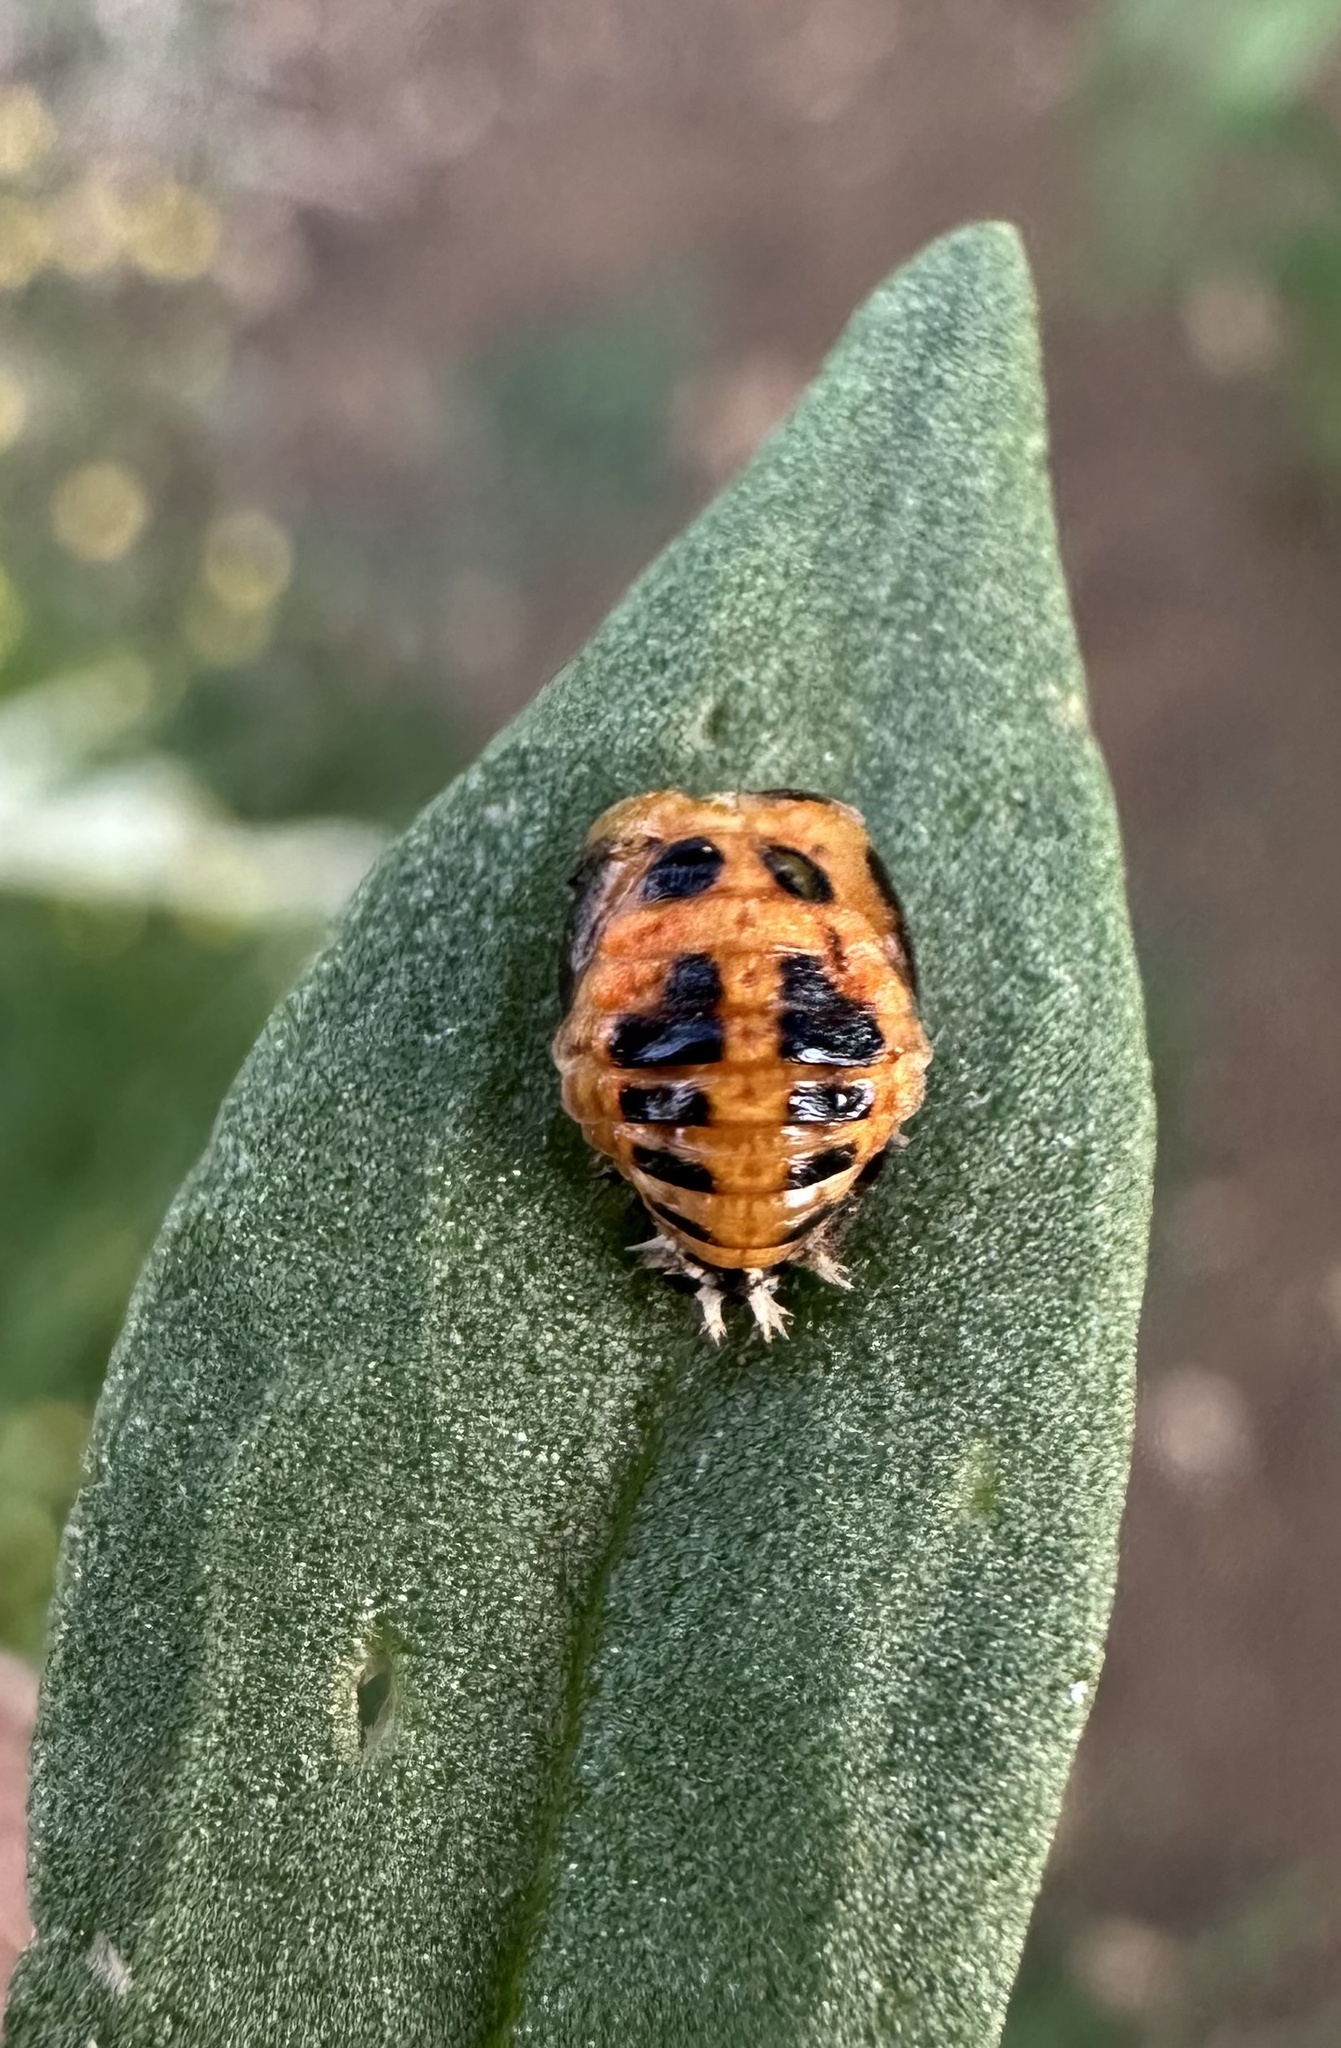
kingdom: Animalia
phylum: Arthropoda
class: Insecta
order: Coleoptera
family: Coccinellidae
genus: Harmonia
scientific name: Harmonia axyridis
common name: Harlequin ladybird
